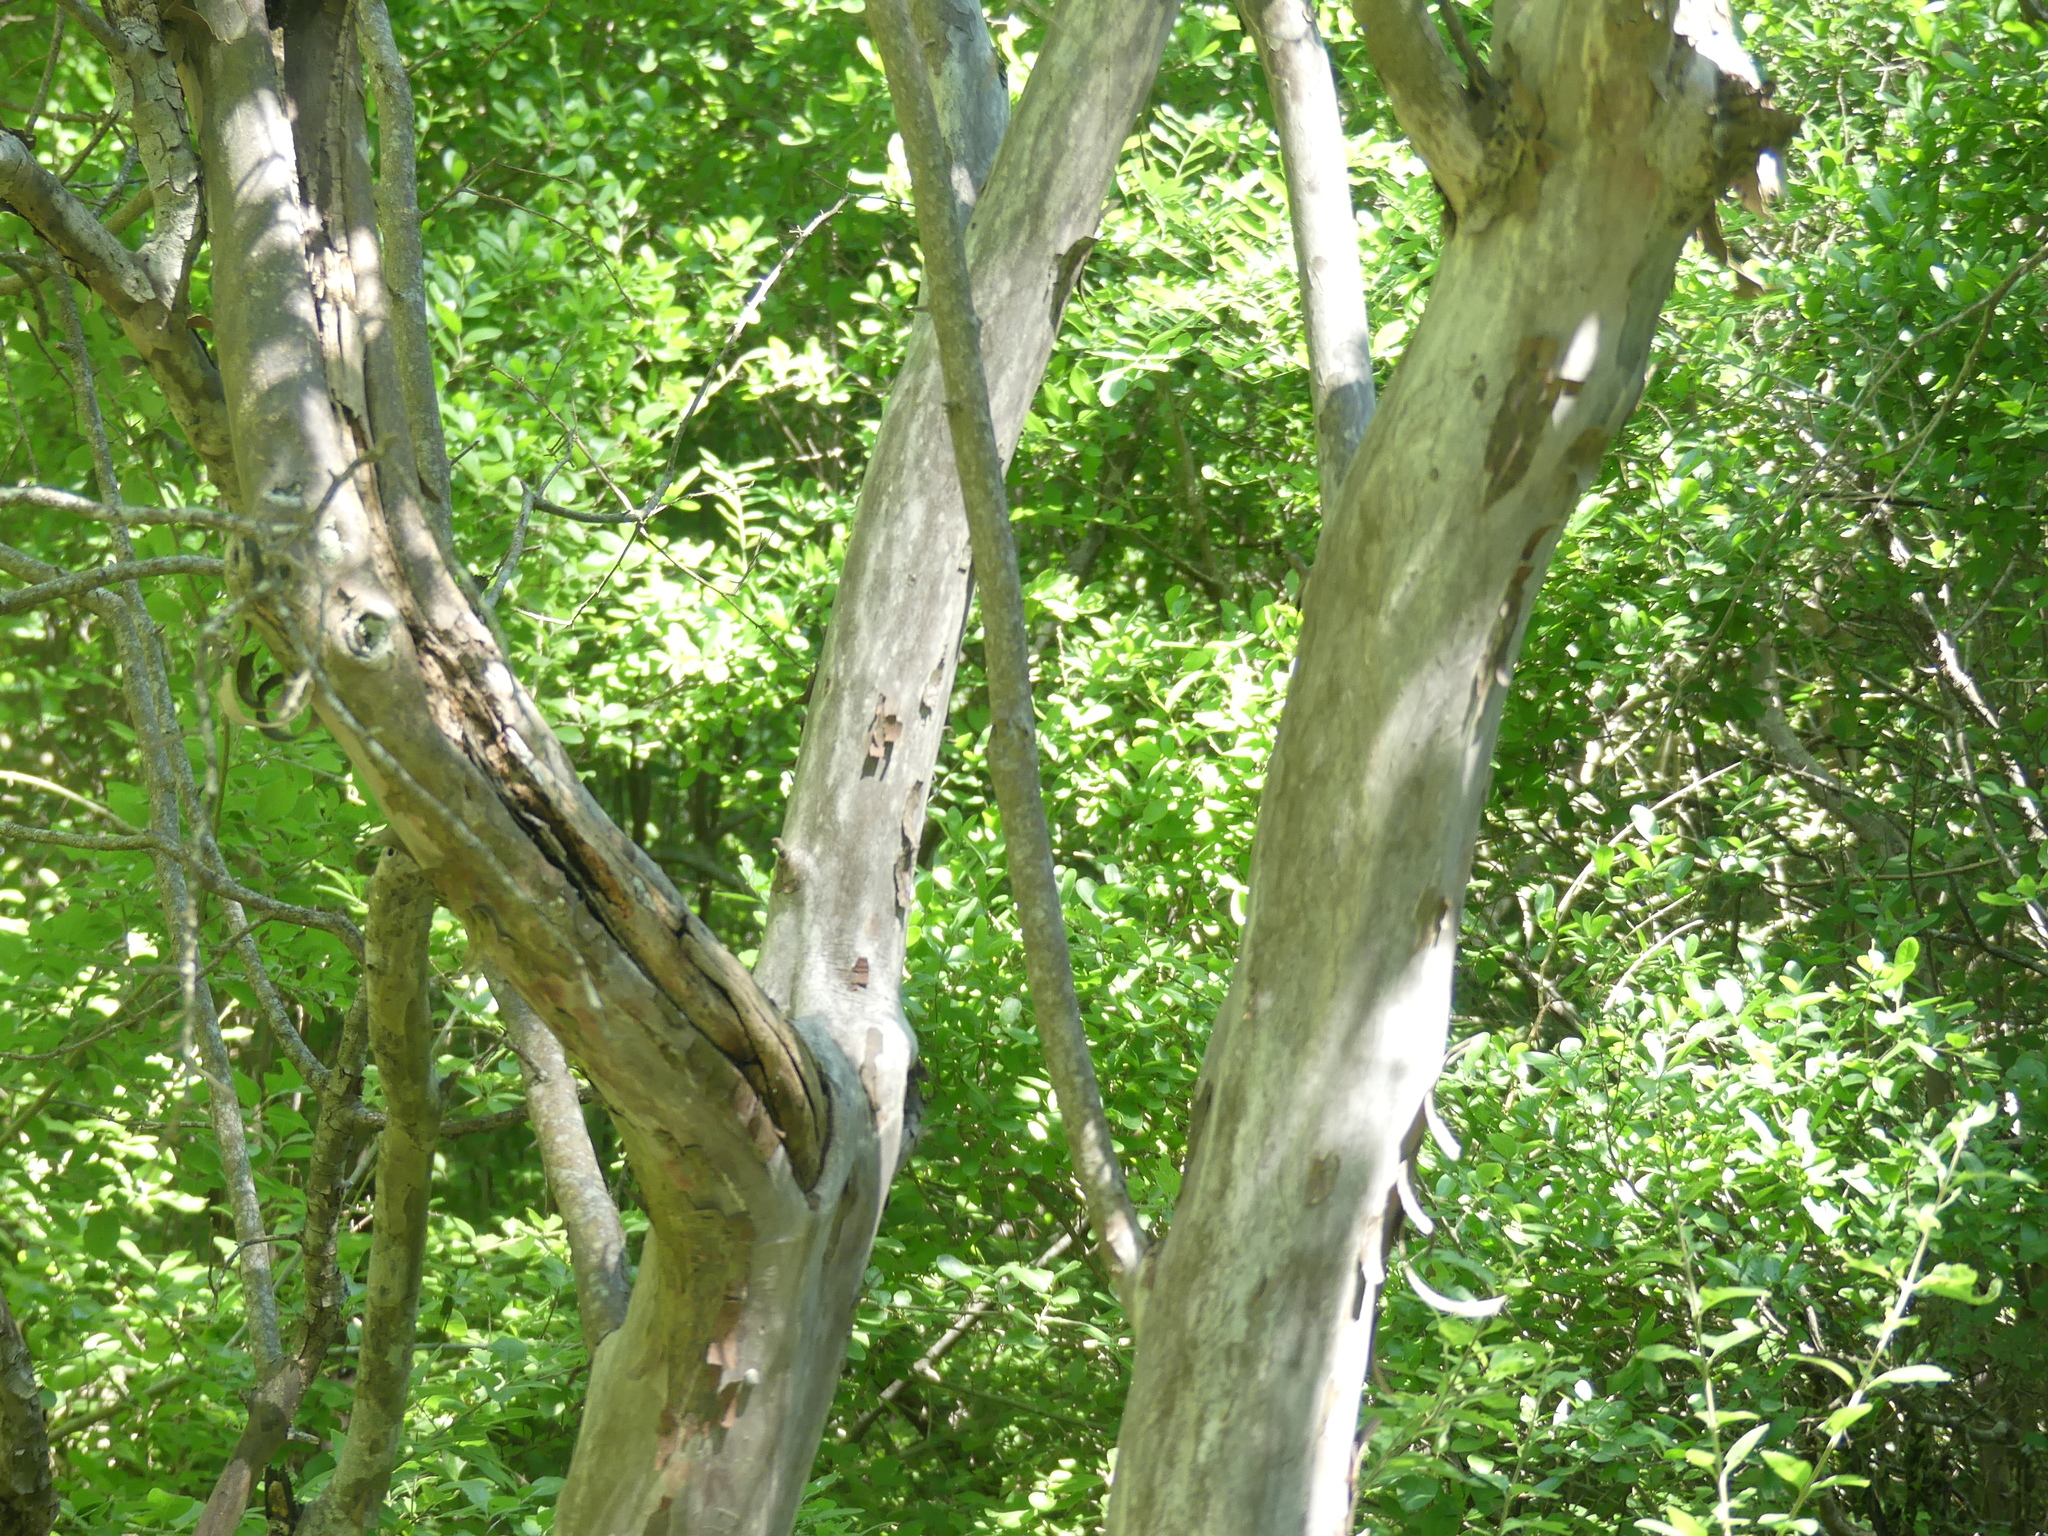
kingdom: Plantae
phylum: Tracheophyta
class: Magnoliopsida
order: Ericales
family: Ebenaceae
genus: Diospyros
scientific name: Diospyros texana
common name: Texas persimmon
